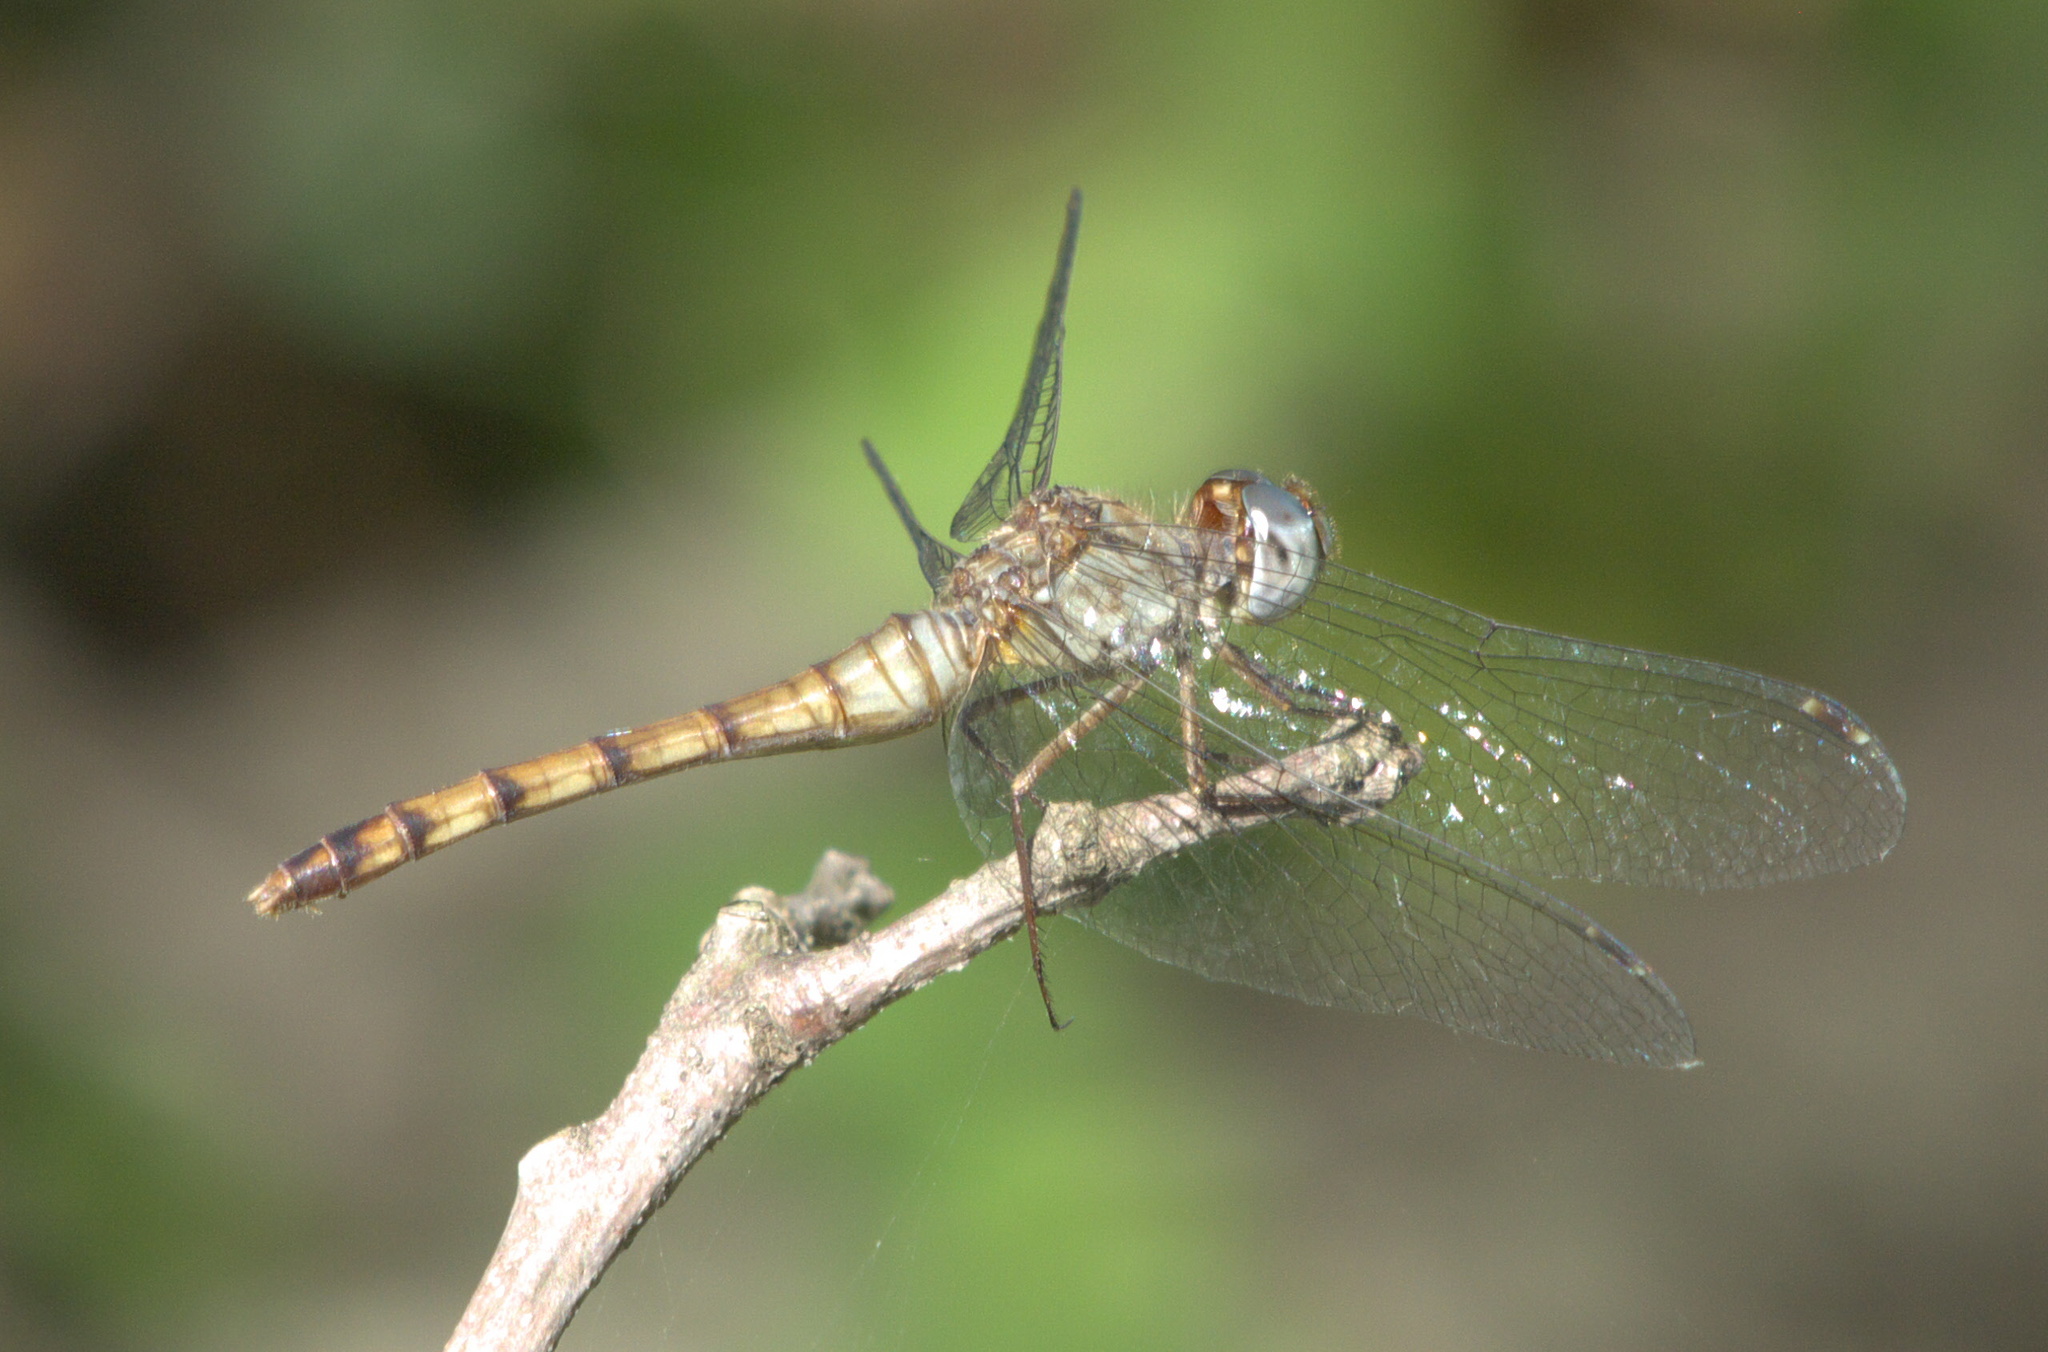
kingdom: Animalia
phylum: Arthropoda
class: Insecta
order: Odonata
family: Libellulidae
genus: Sympetrum
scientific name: Sympetrum ambiguum
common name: Blue-faced meadowhawk
